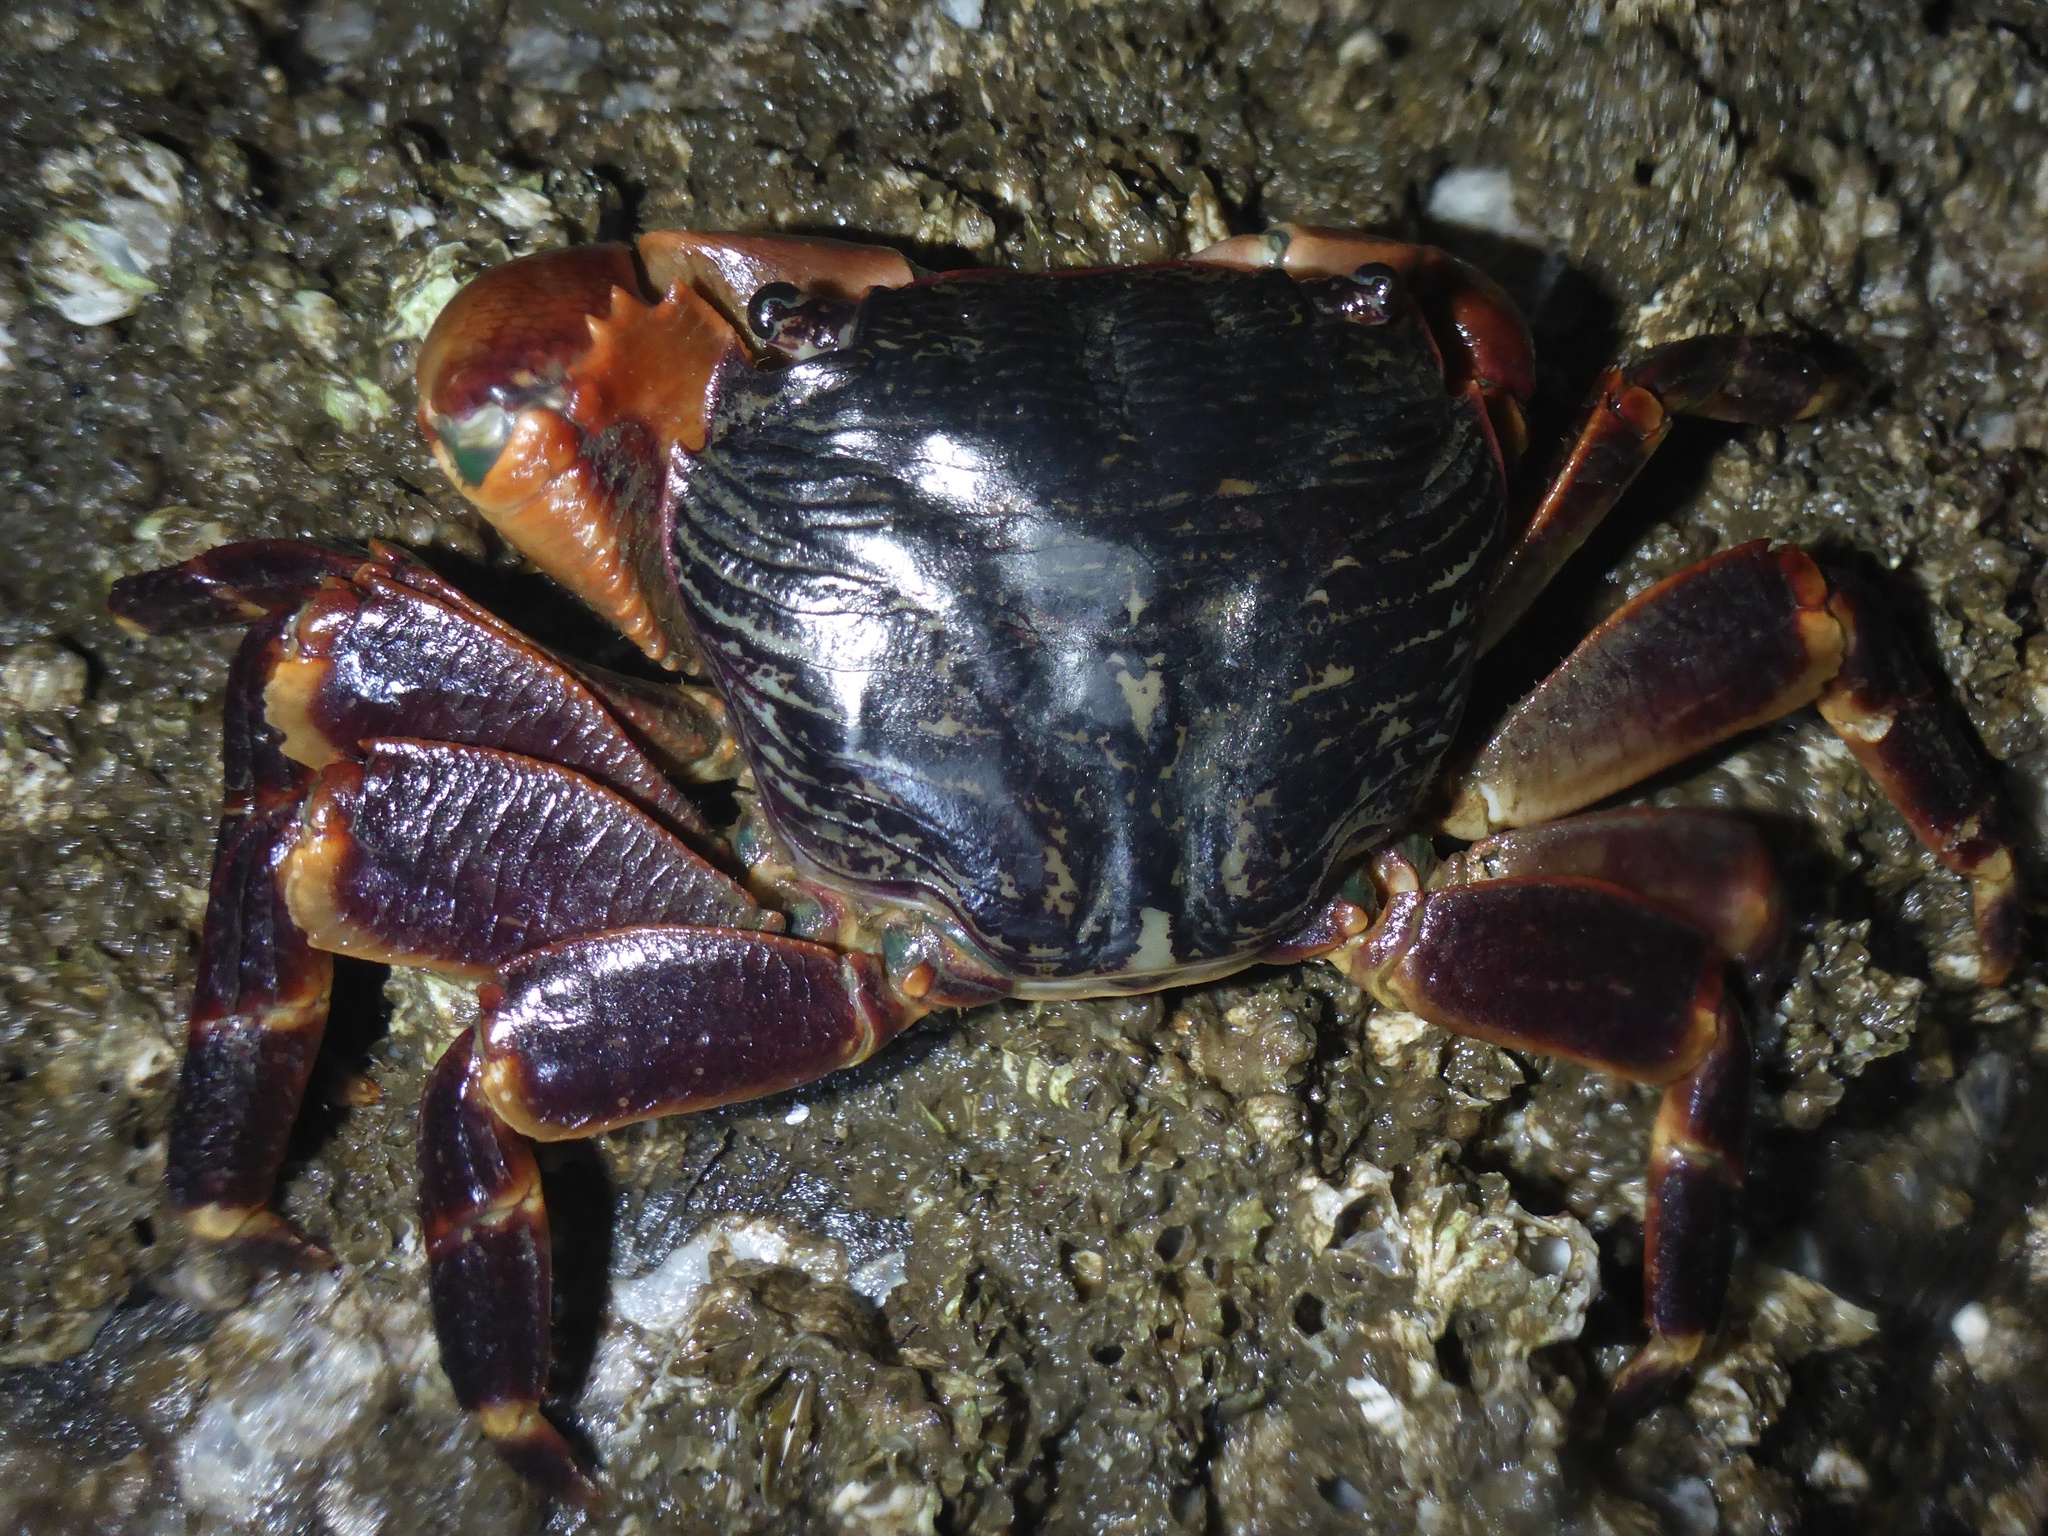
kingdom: Animalia
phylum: Arthropoda
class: Malacostraca
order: Decapoda
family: Grapsidae
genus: Pachygrapsus
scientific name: Pachygrapsus crassipes
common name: Striped shore crab
